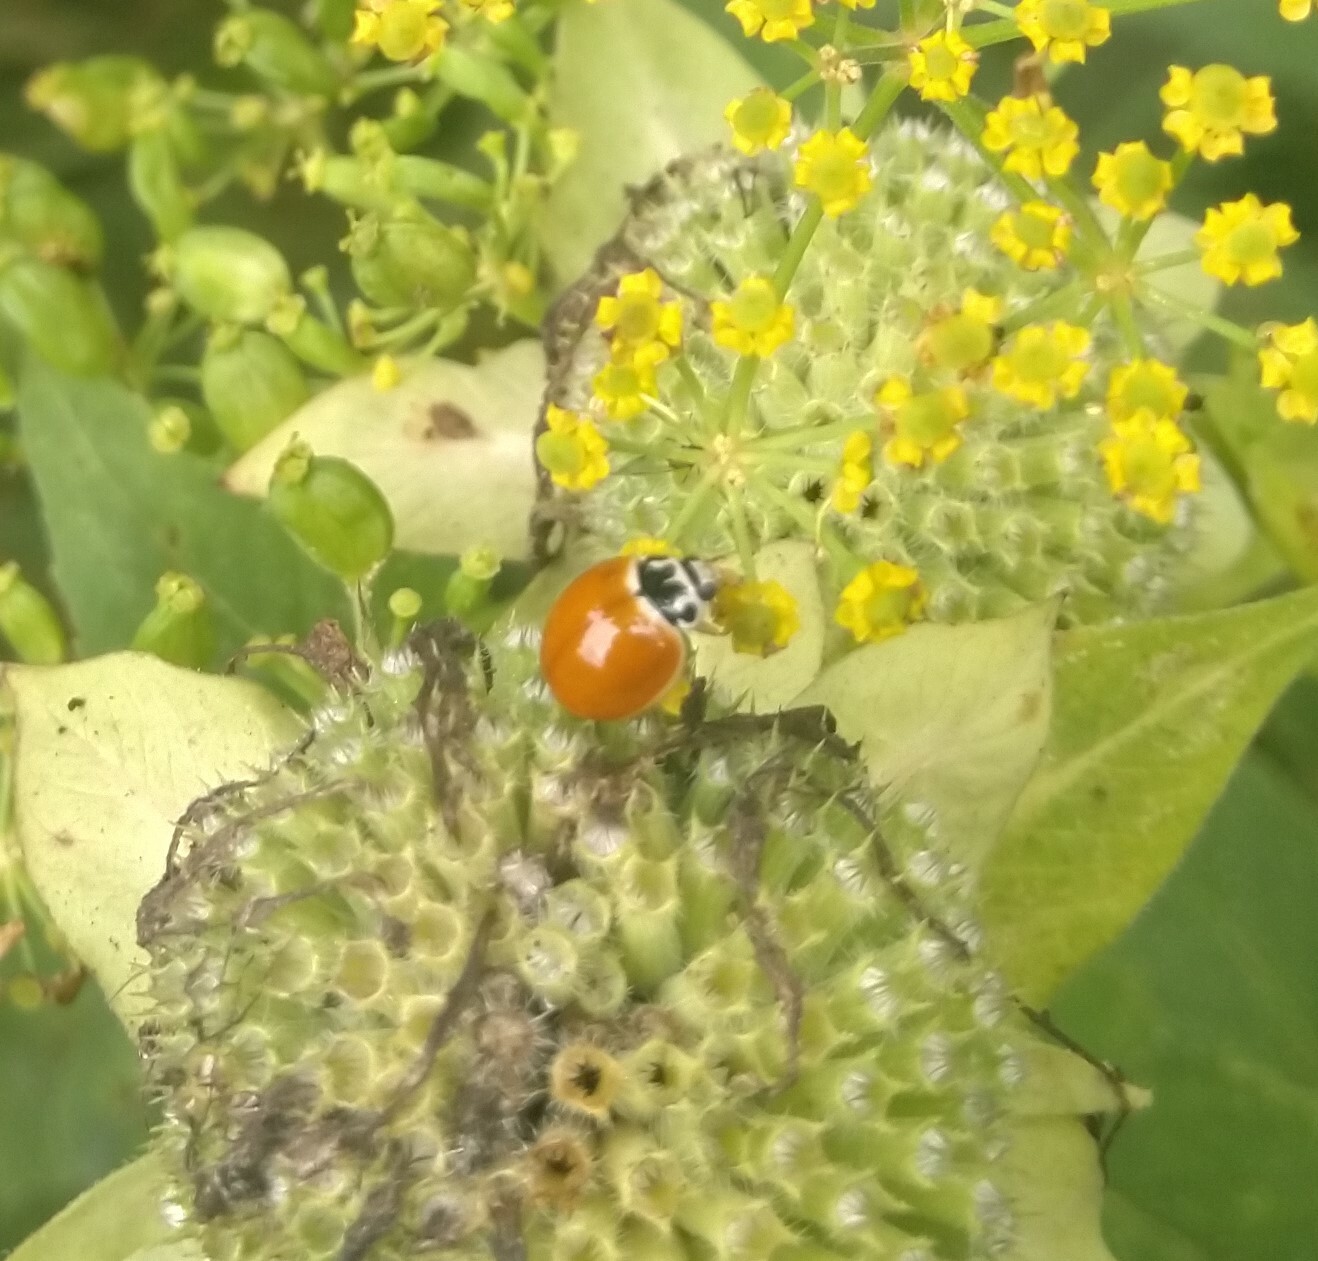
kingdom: Animalia
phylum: Arthropoda
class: Insecta
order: Coleoptera
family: Coccinellidae
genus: Cycloneda
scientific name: Cycloneda munda
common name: Polished lady beetle
